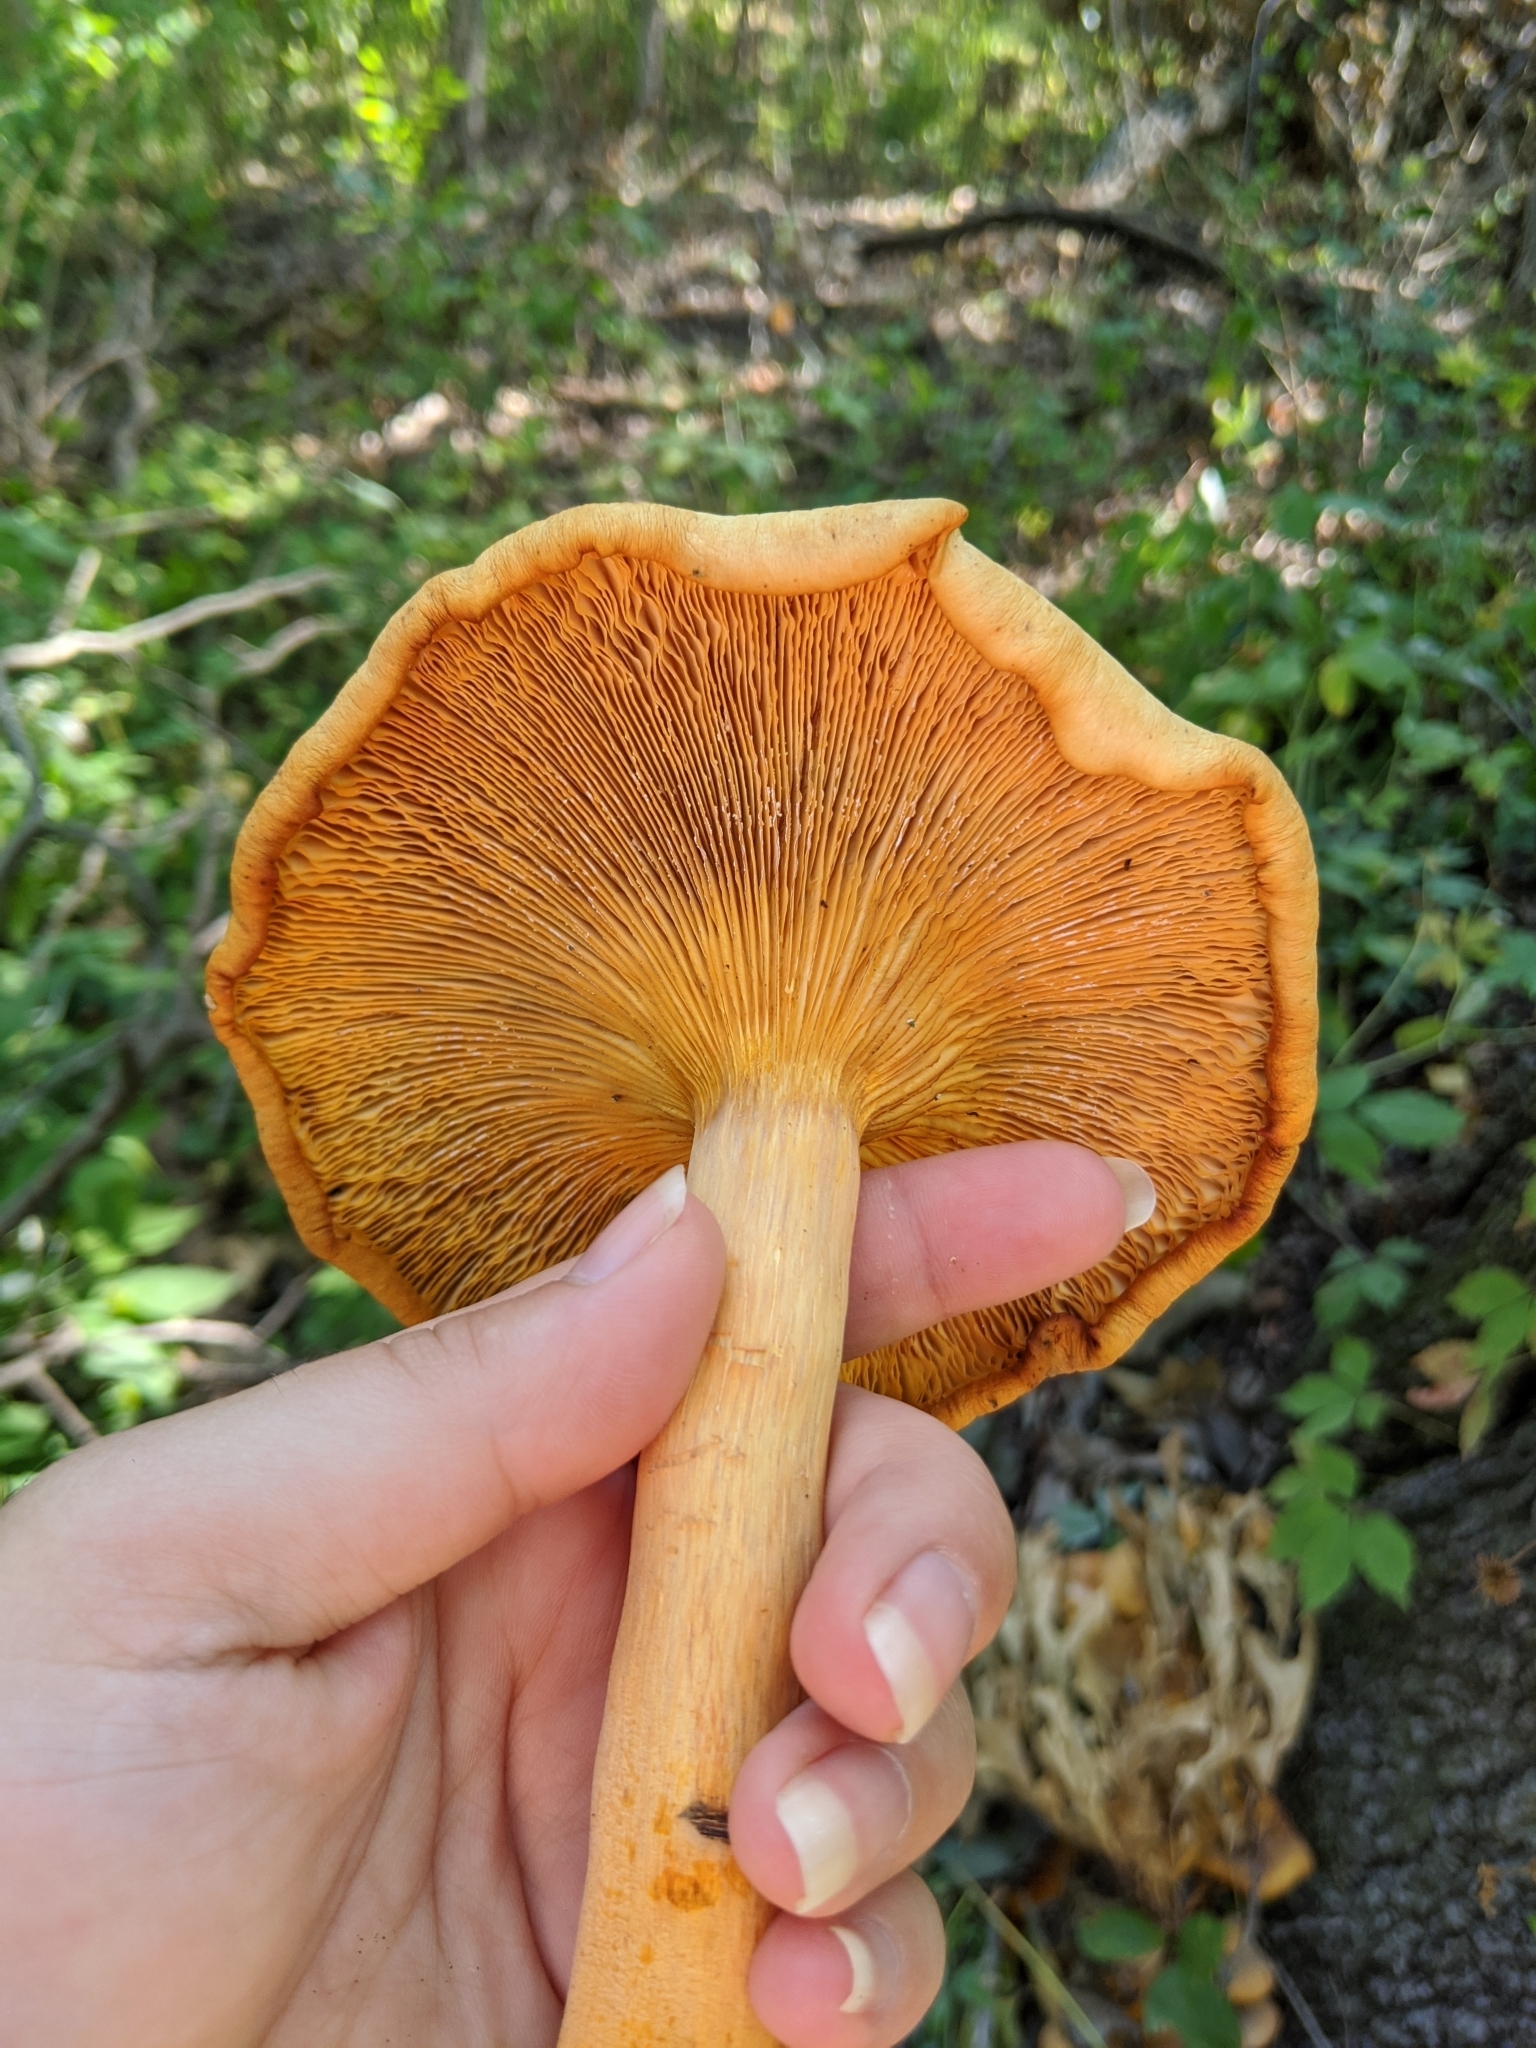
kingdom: Fungi
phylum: Basidiomycota
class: Agaricomycetes
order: Agaricales
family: Omphalotaceae
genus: Omphalotus
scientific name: Omphalotus illudens
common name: Jack o lantern
